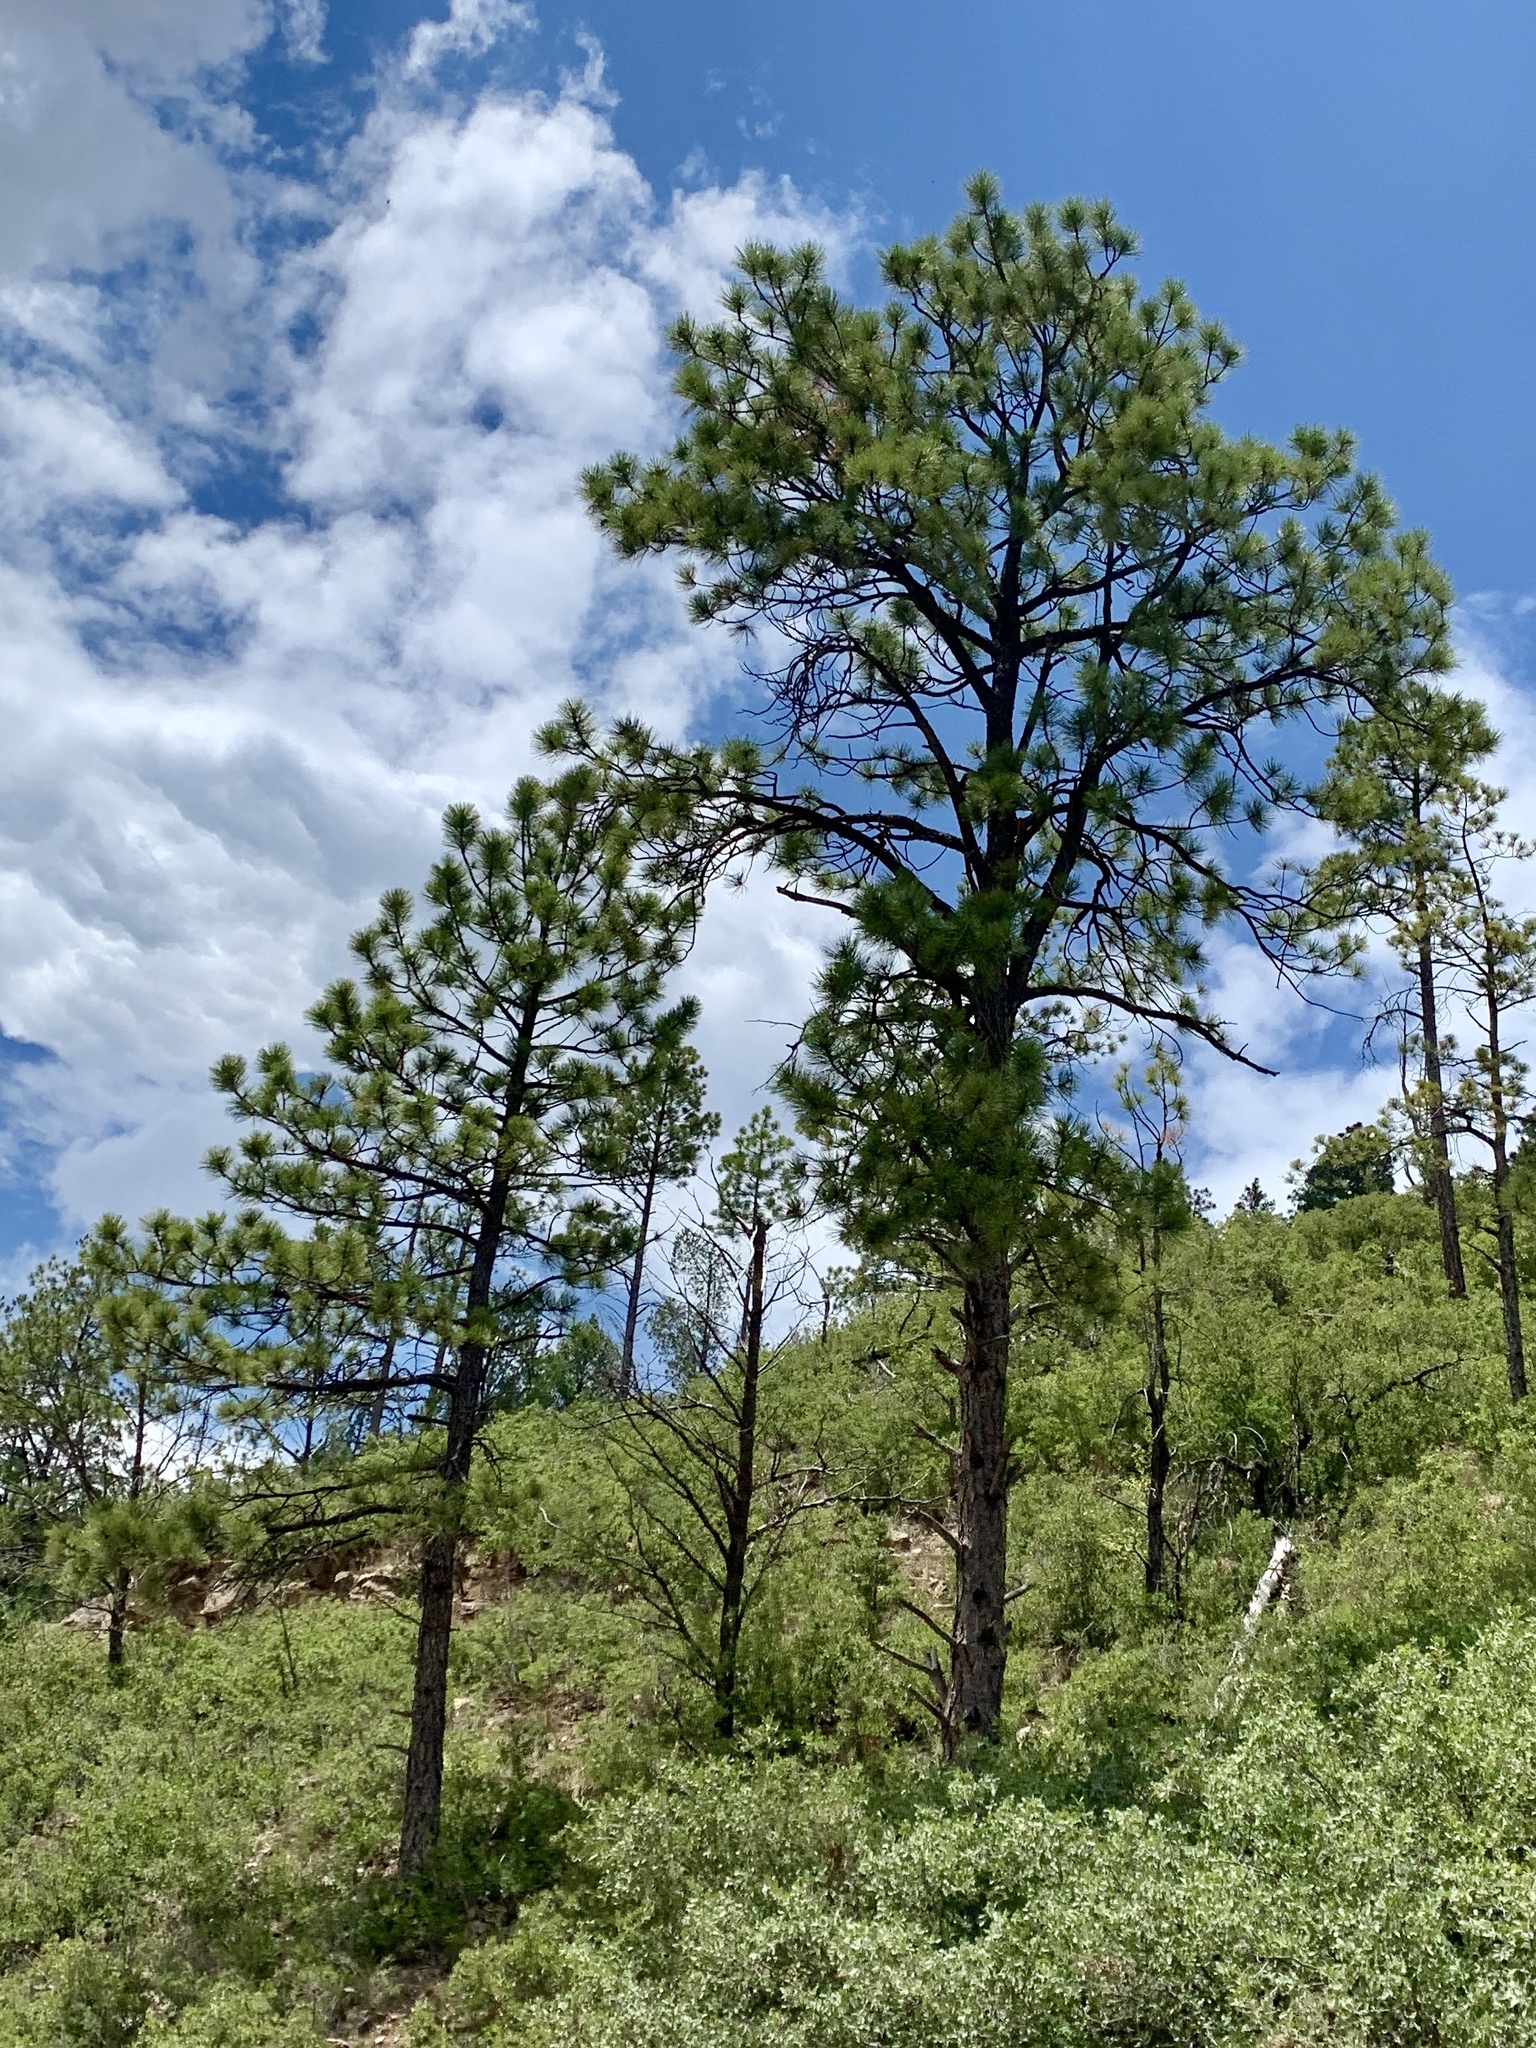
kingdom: Plantae
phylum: Tracheophyta
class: Pinopsida
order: Pinales
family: Pinaceae
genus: Pinus
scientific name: Pinus ponderosa
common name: Western yellow-pine
